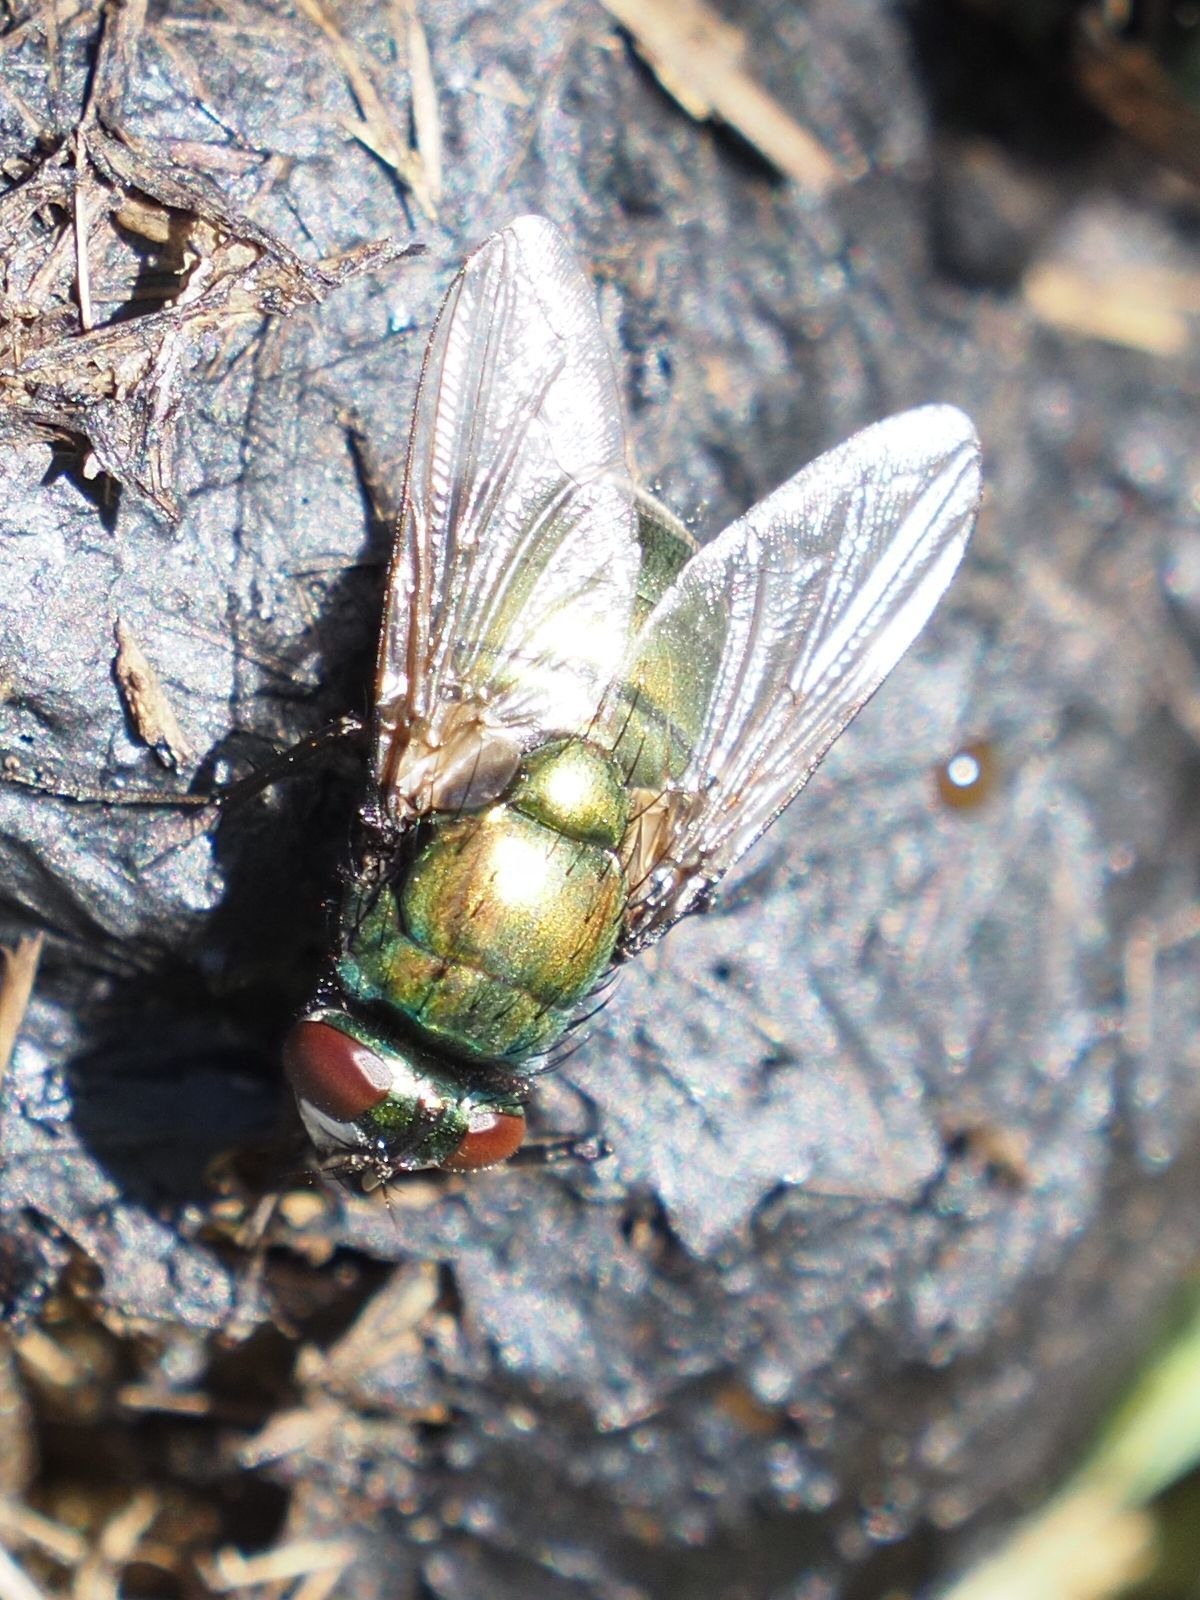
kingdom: Animalia
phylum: Arthropoda
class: Insecta
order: Diptera
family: Muscidae
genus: Neomyia
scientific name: Neomyia cornicina
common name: House fly
